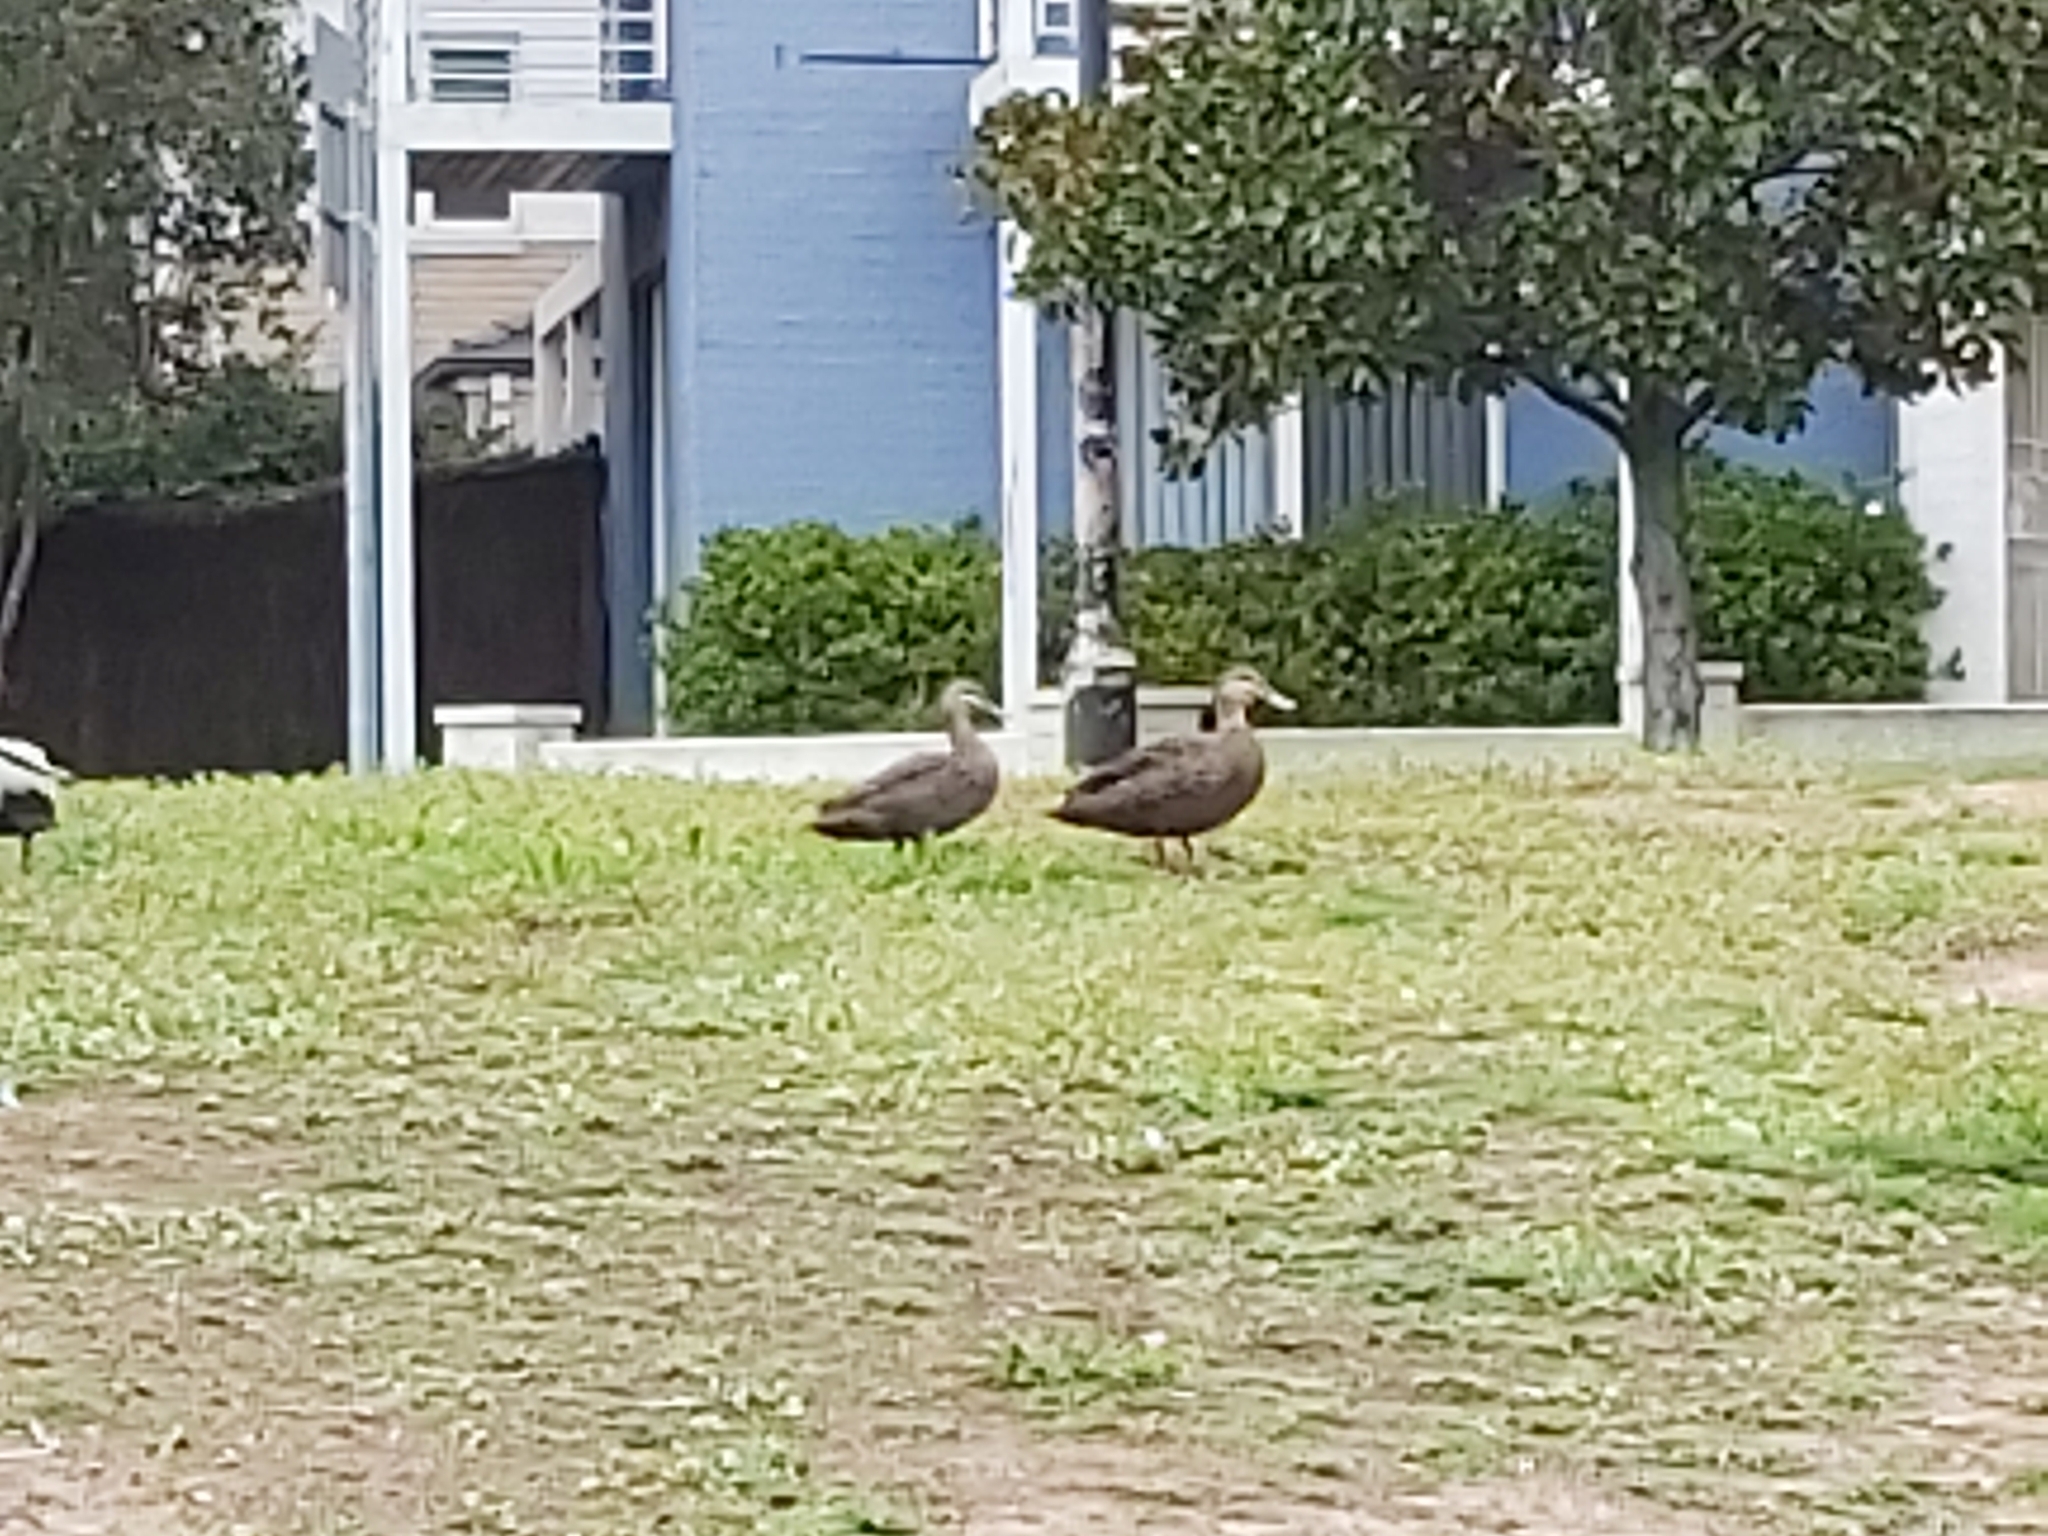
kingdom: Animalia
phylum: Chordata
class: Aves
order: Anseriformes
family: Anatidae
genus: Anas
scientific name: Anas superciliosa
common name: Pacific black duck
